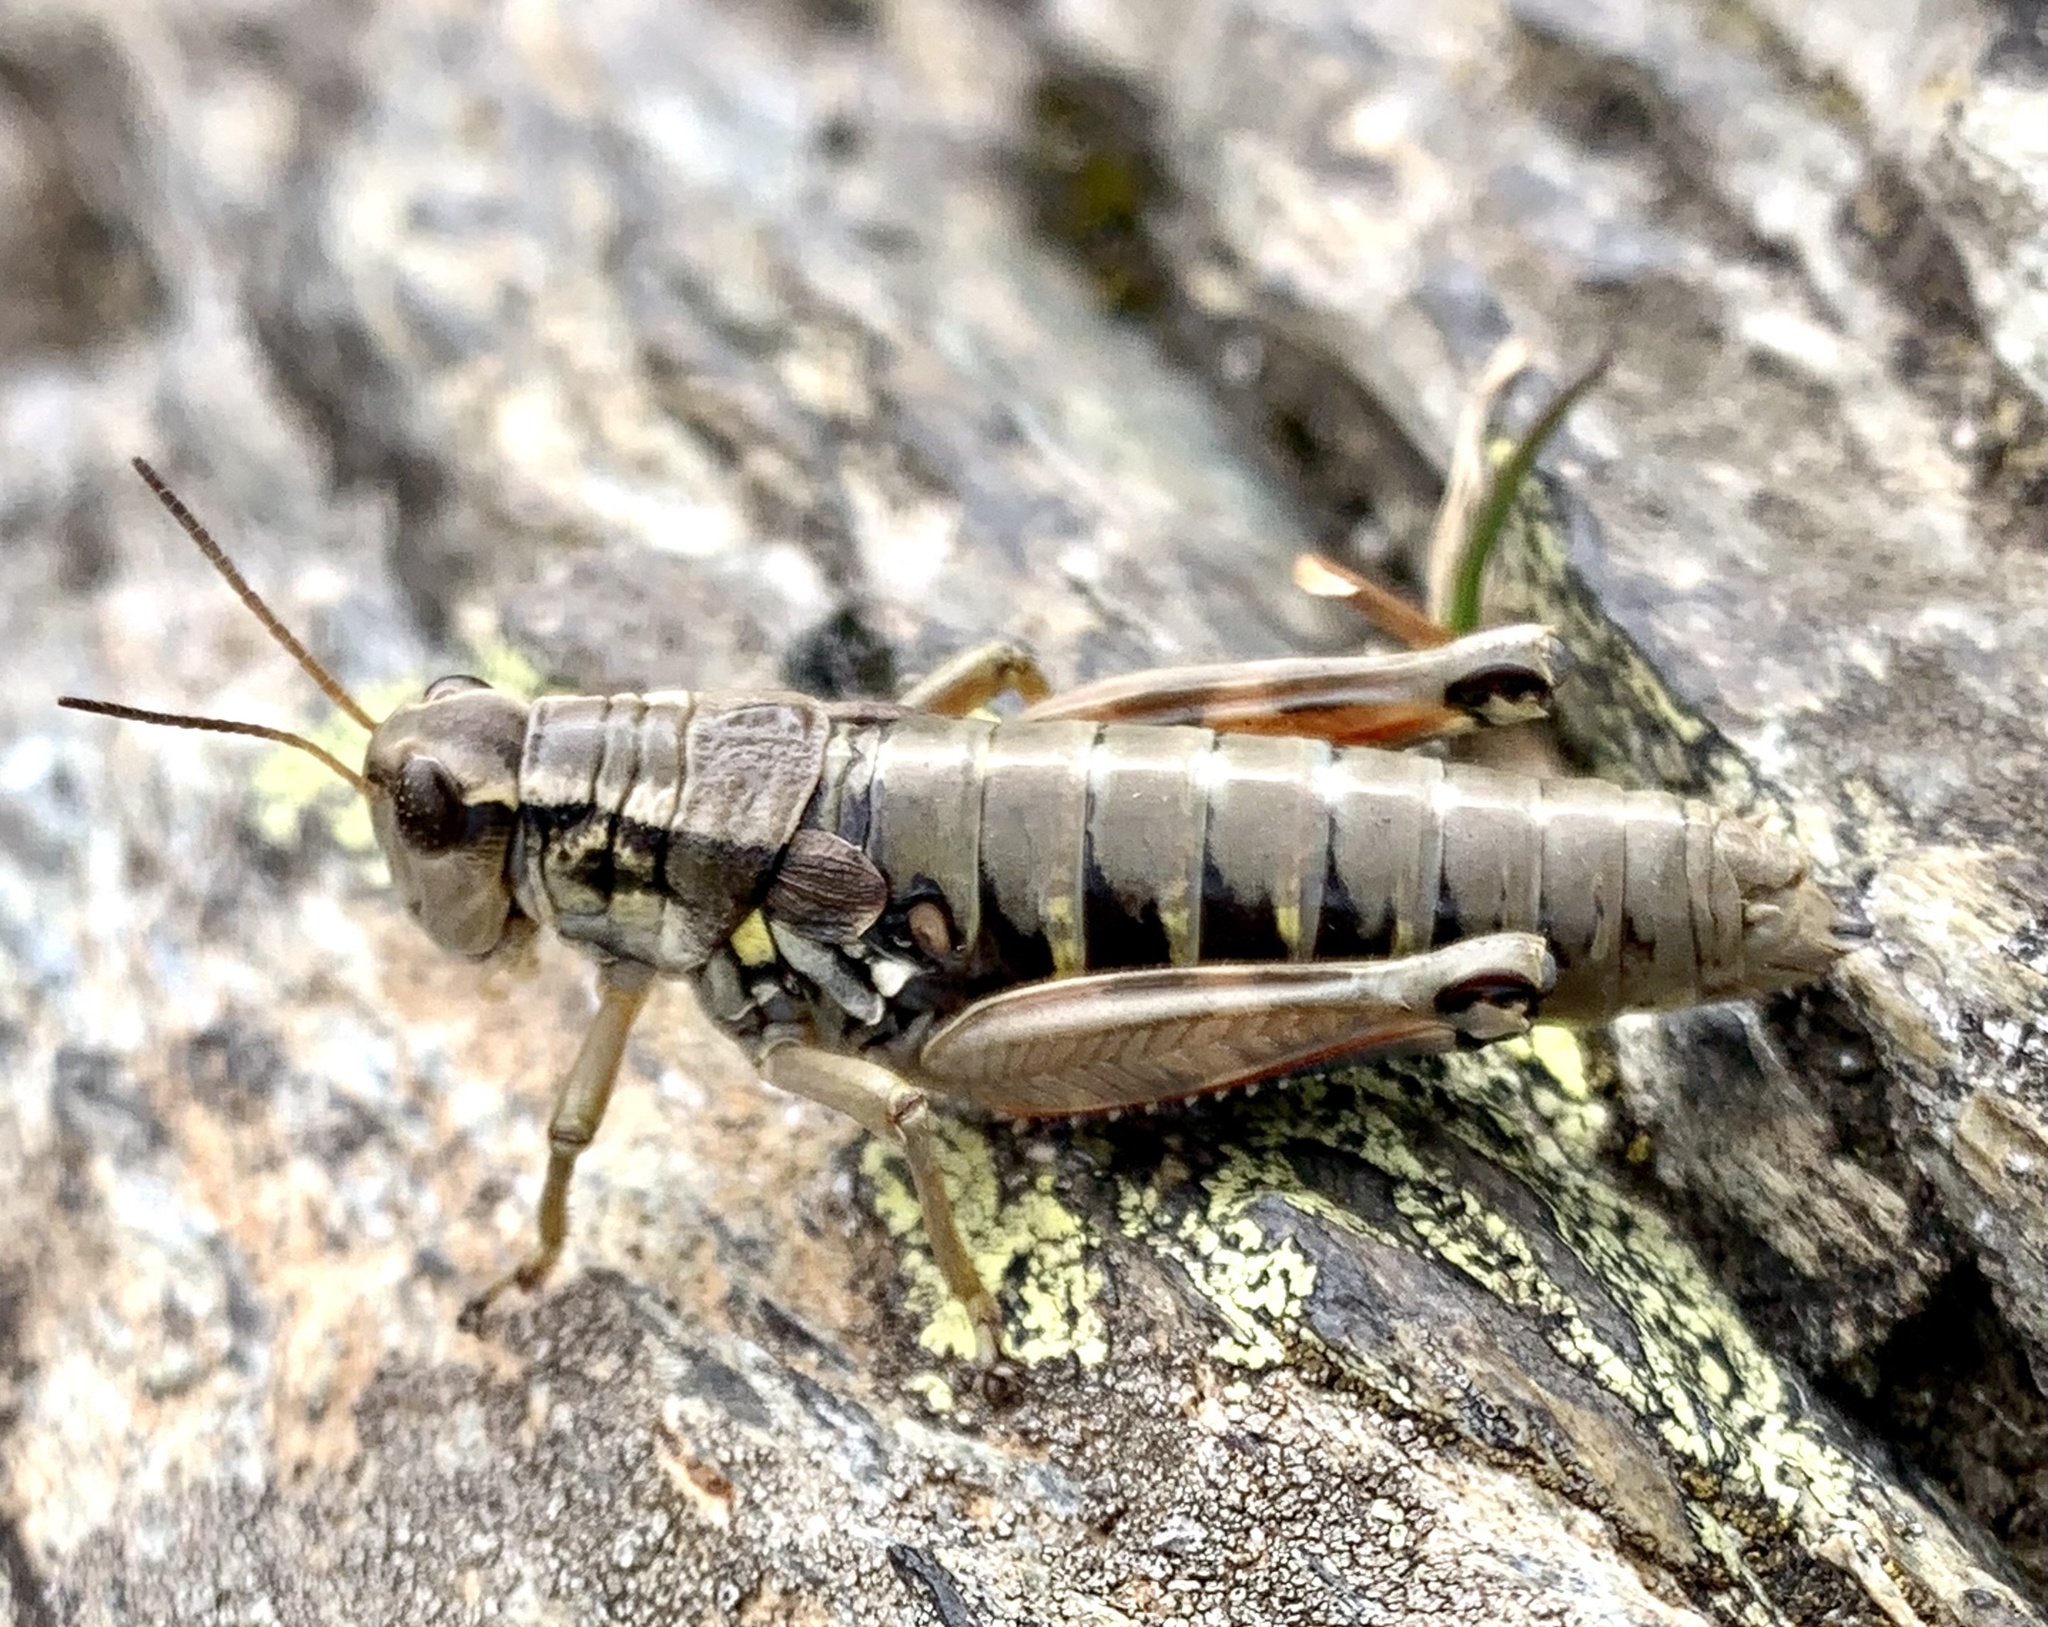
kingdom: Animalia
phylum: Arthropoda
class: Insecta
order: Orthoptera
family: Acrididae
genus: Podisma
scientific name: Podisma pedestris
